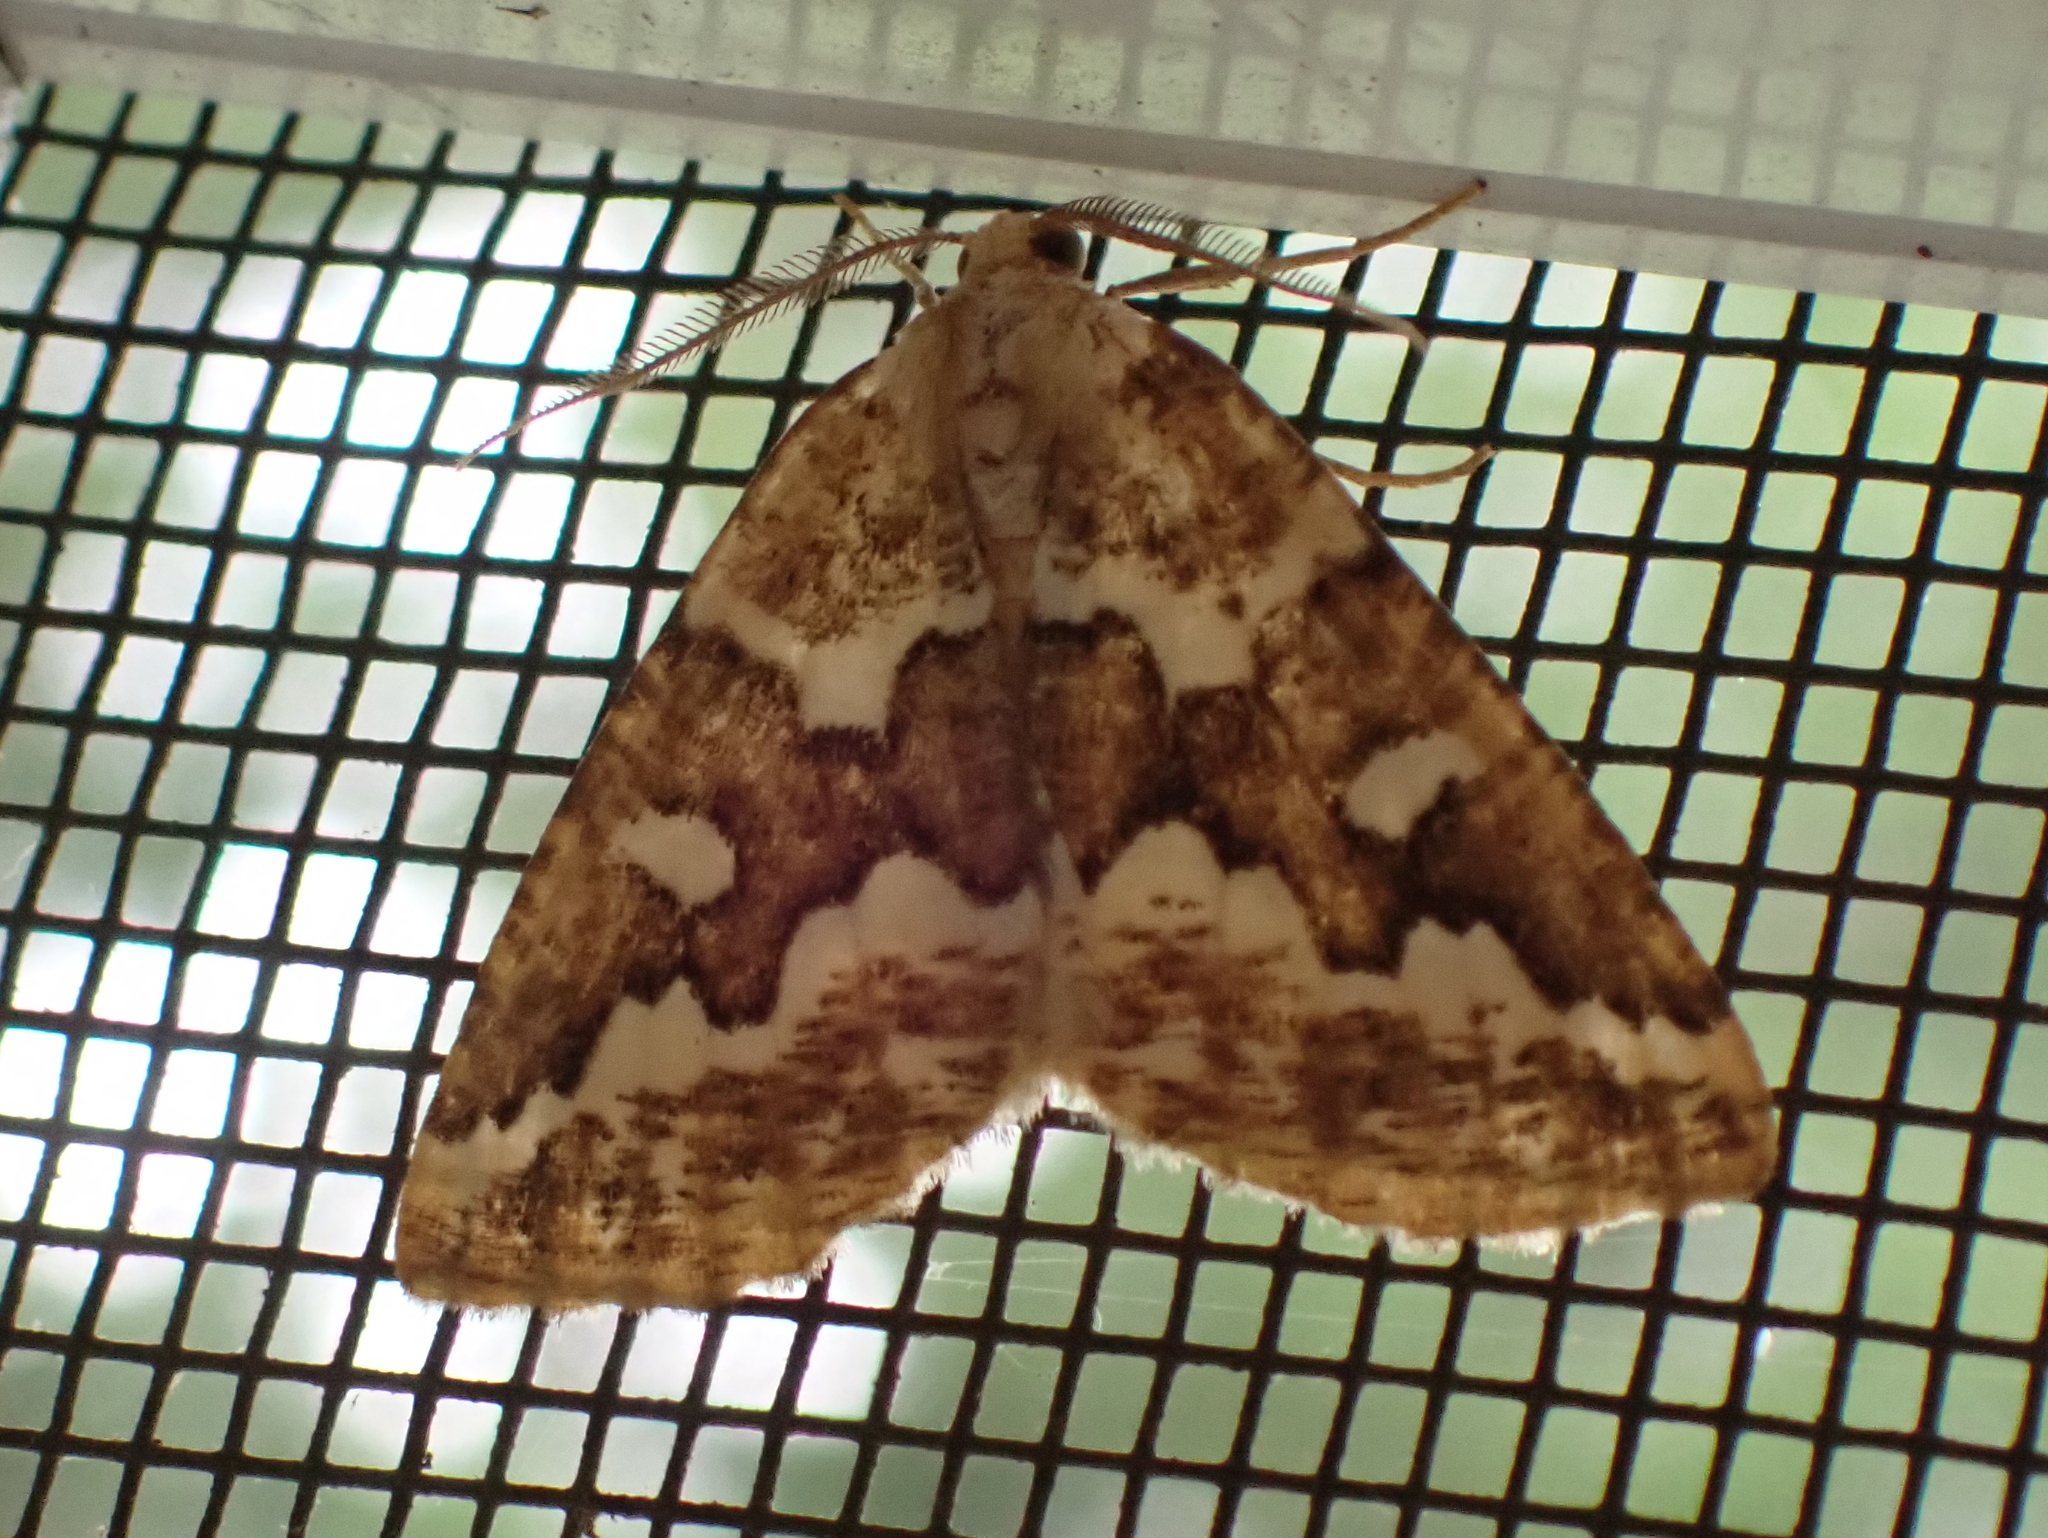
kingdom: Animalia
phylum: Arthropoda
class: Insecta
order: Lepidoptera
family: Geometridae
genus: Caripeta
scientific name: Caripeta divisata
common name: Gray spruce looper
